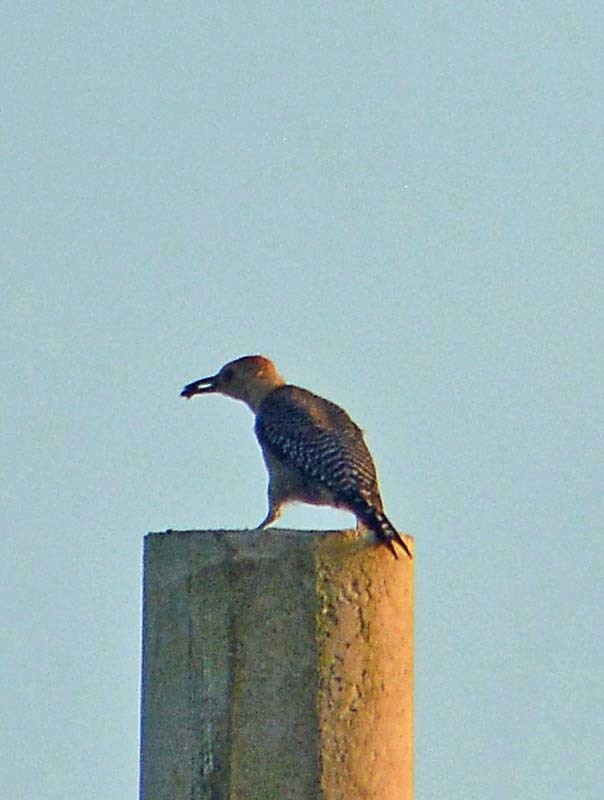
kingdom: Animalia
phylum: Chordata
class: Aves
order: Piciformes
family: Picidae
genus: Melanerpes
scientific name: Melanerpes aurifrons
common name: Golden-fronted woodpecker
